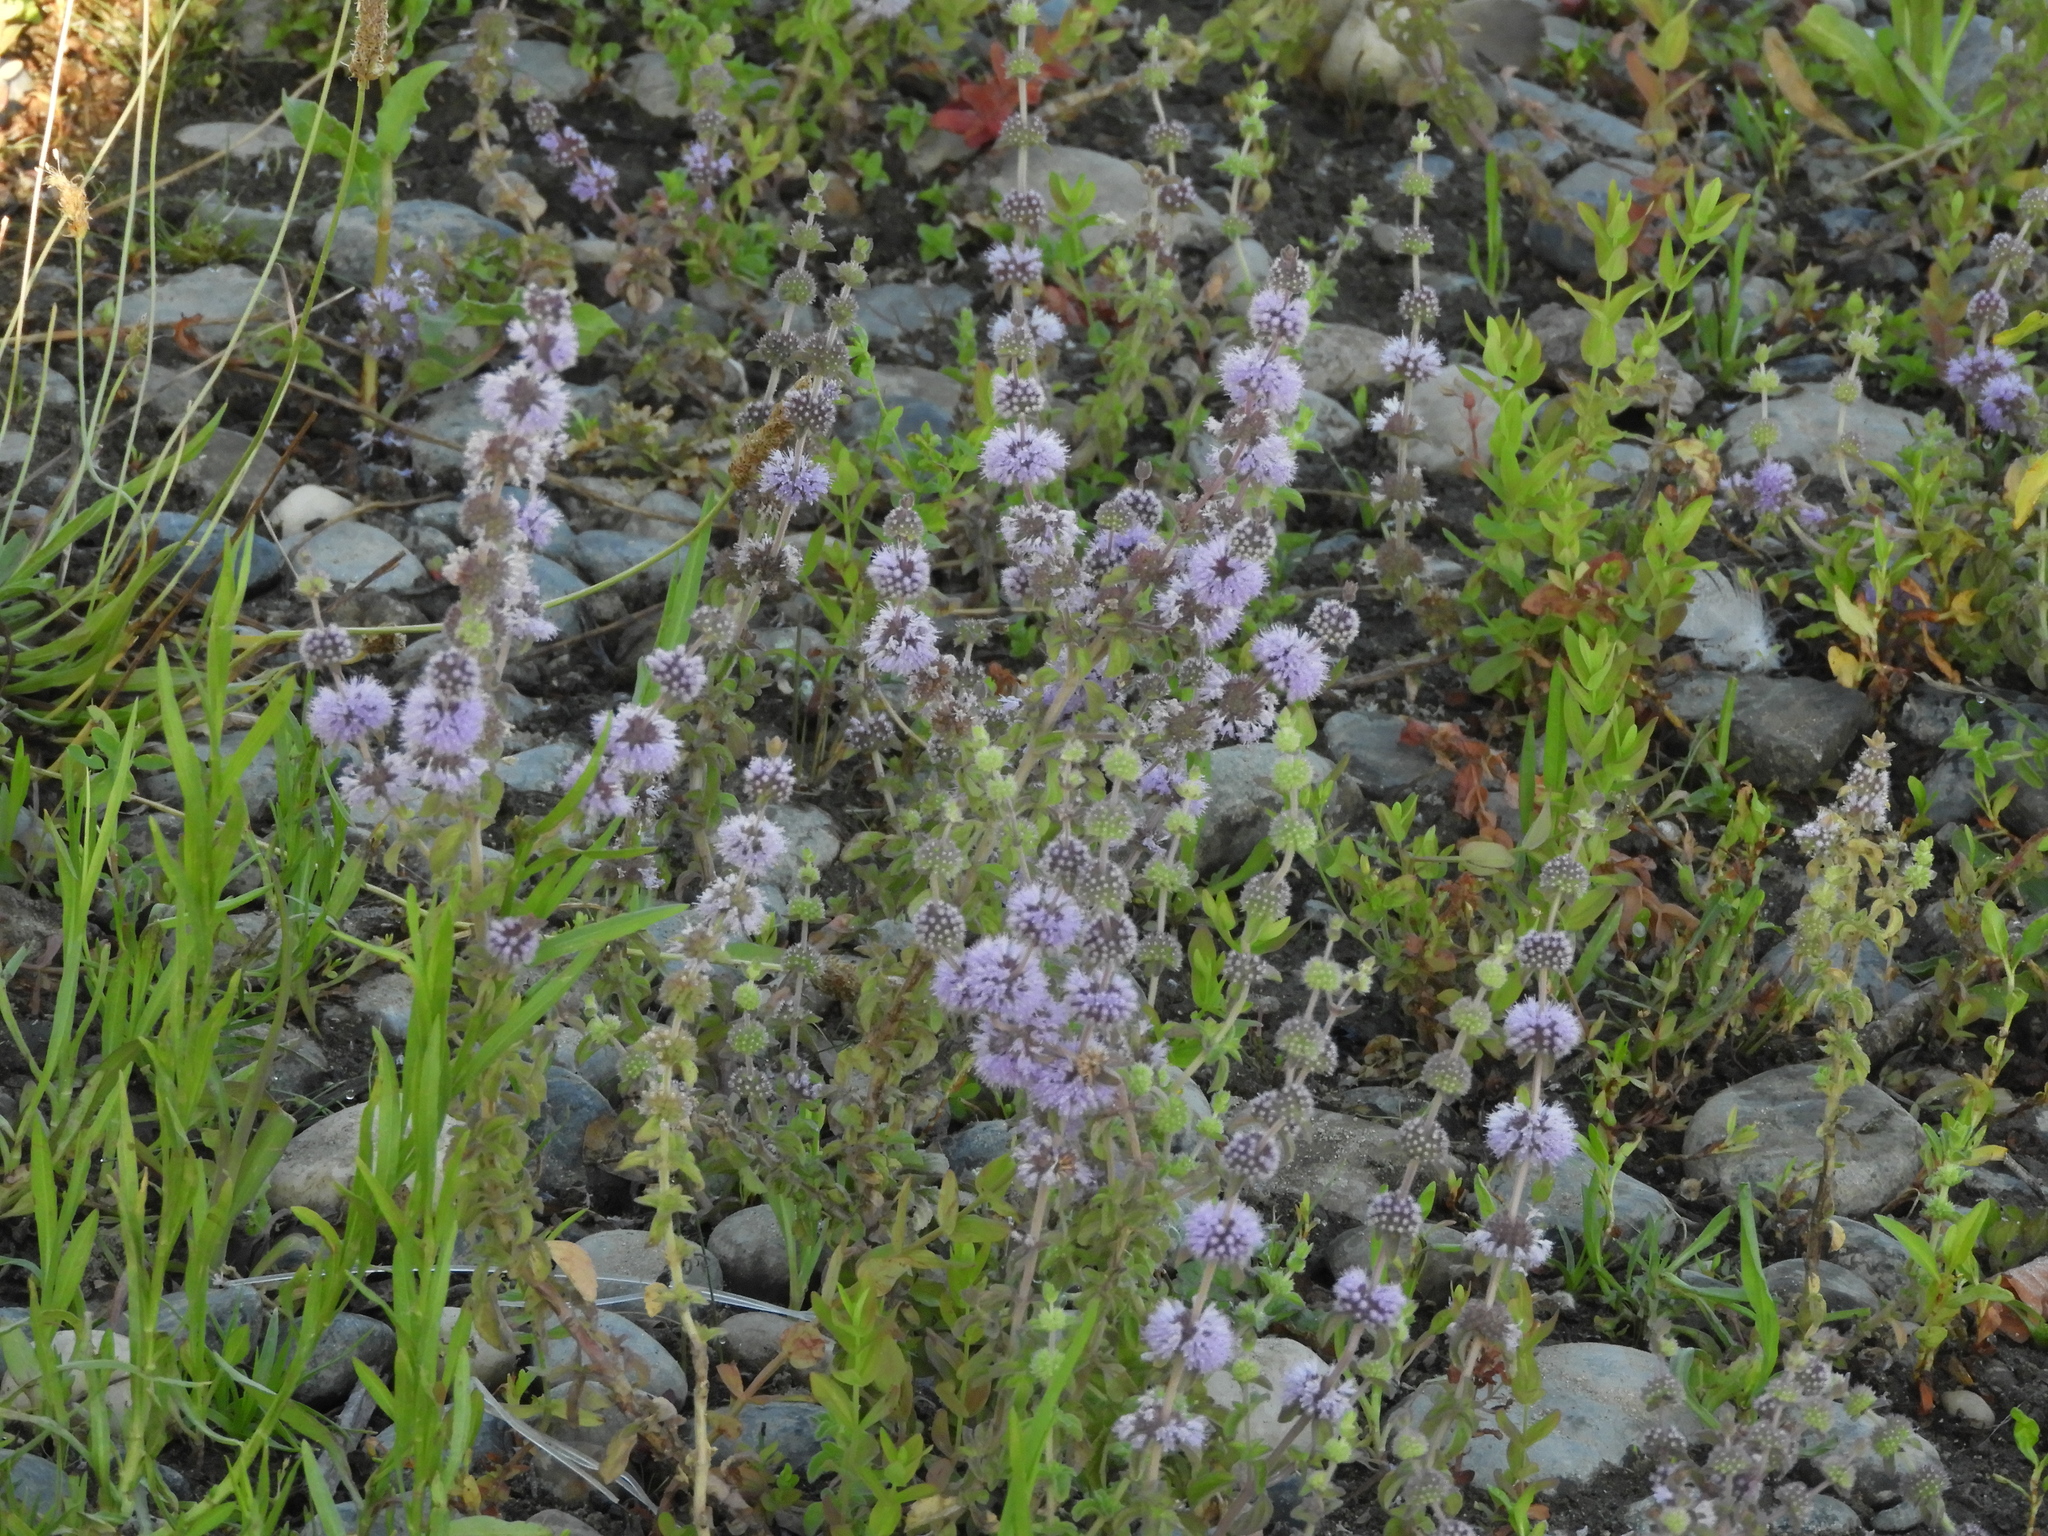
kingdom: Plantae
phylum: Tracheophyta
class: Magnoliopsida
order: Lamiales
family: Lamiaceae
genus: Mentha
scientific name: Mentha pulegium
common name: Pennyroyal
